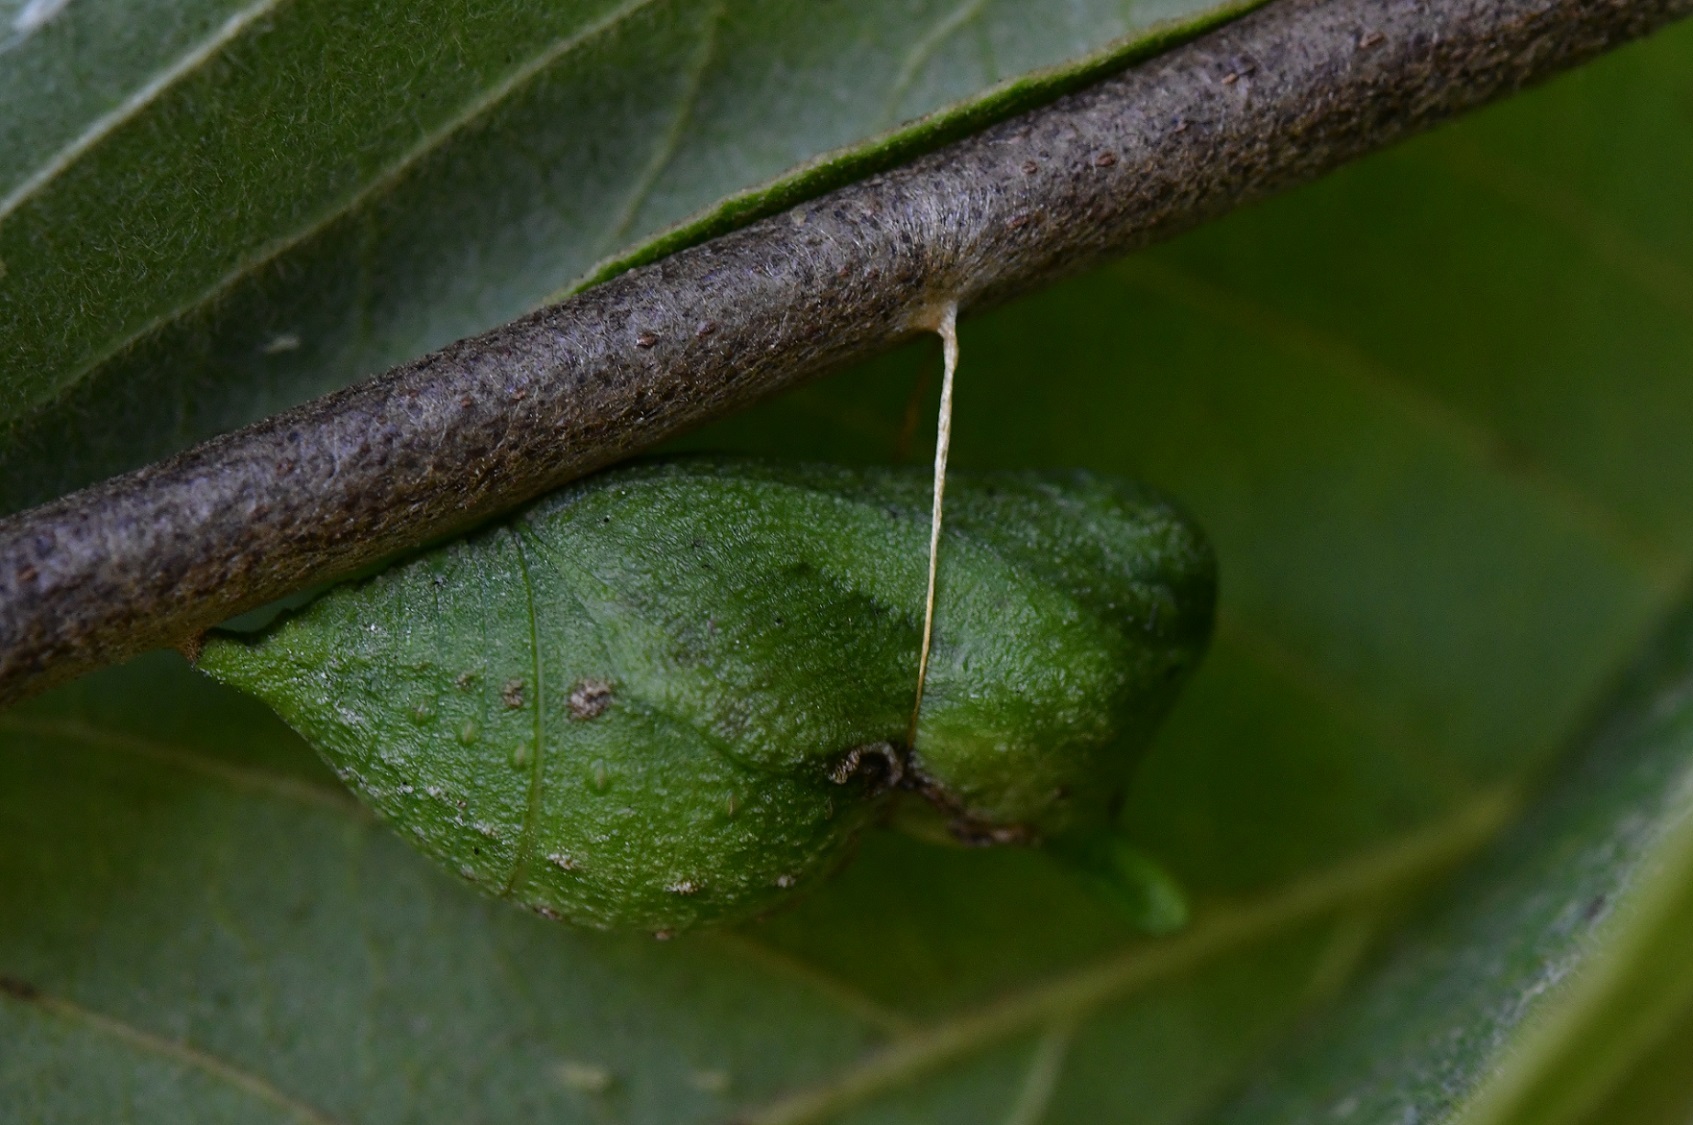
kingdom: Animalia
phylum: Arthropoda
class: Insecta
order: Lepidoptera
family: Papilionidae
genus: Mimoides
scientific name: Mimoides thymbraeus
